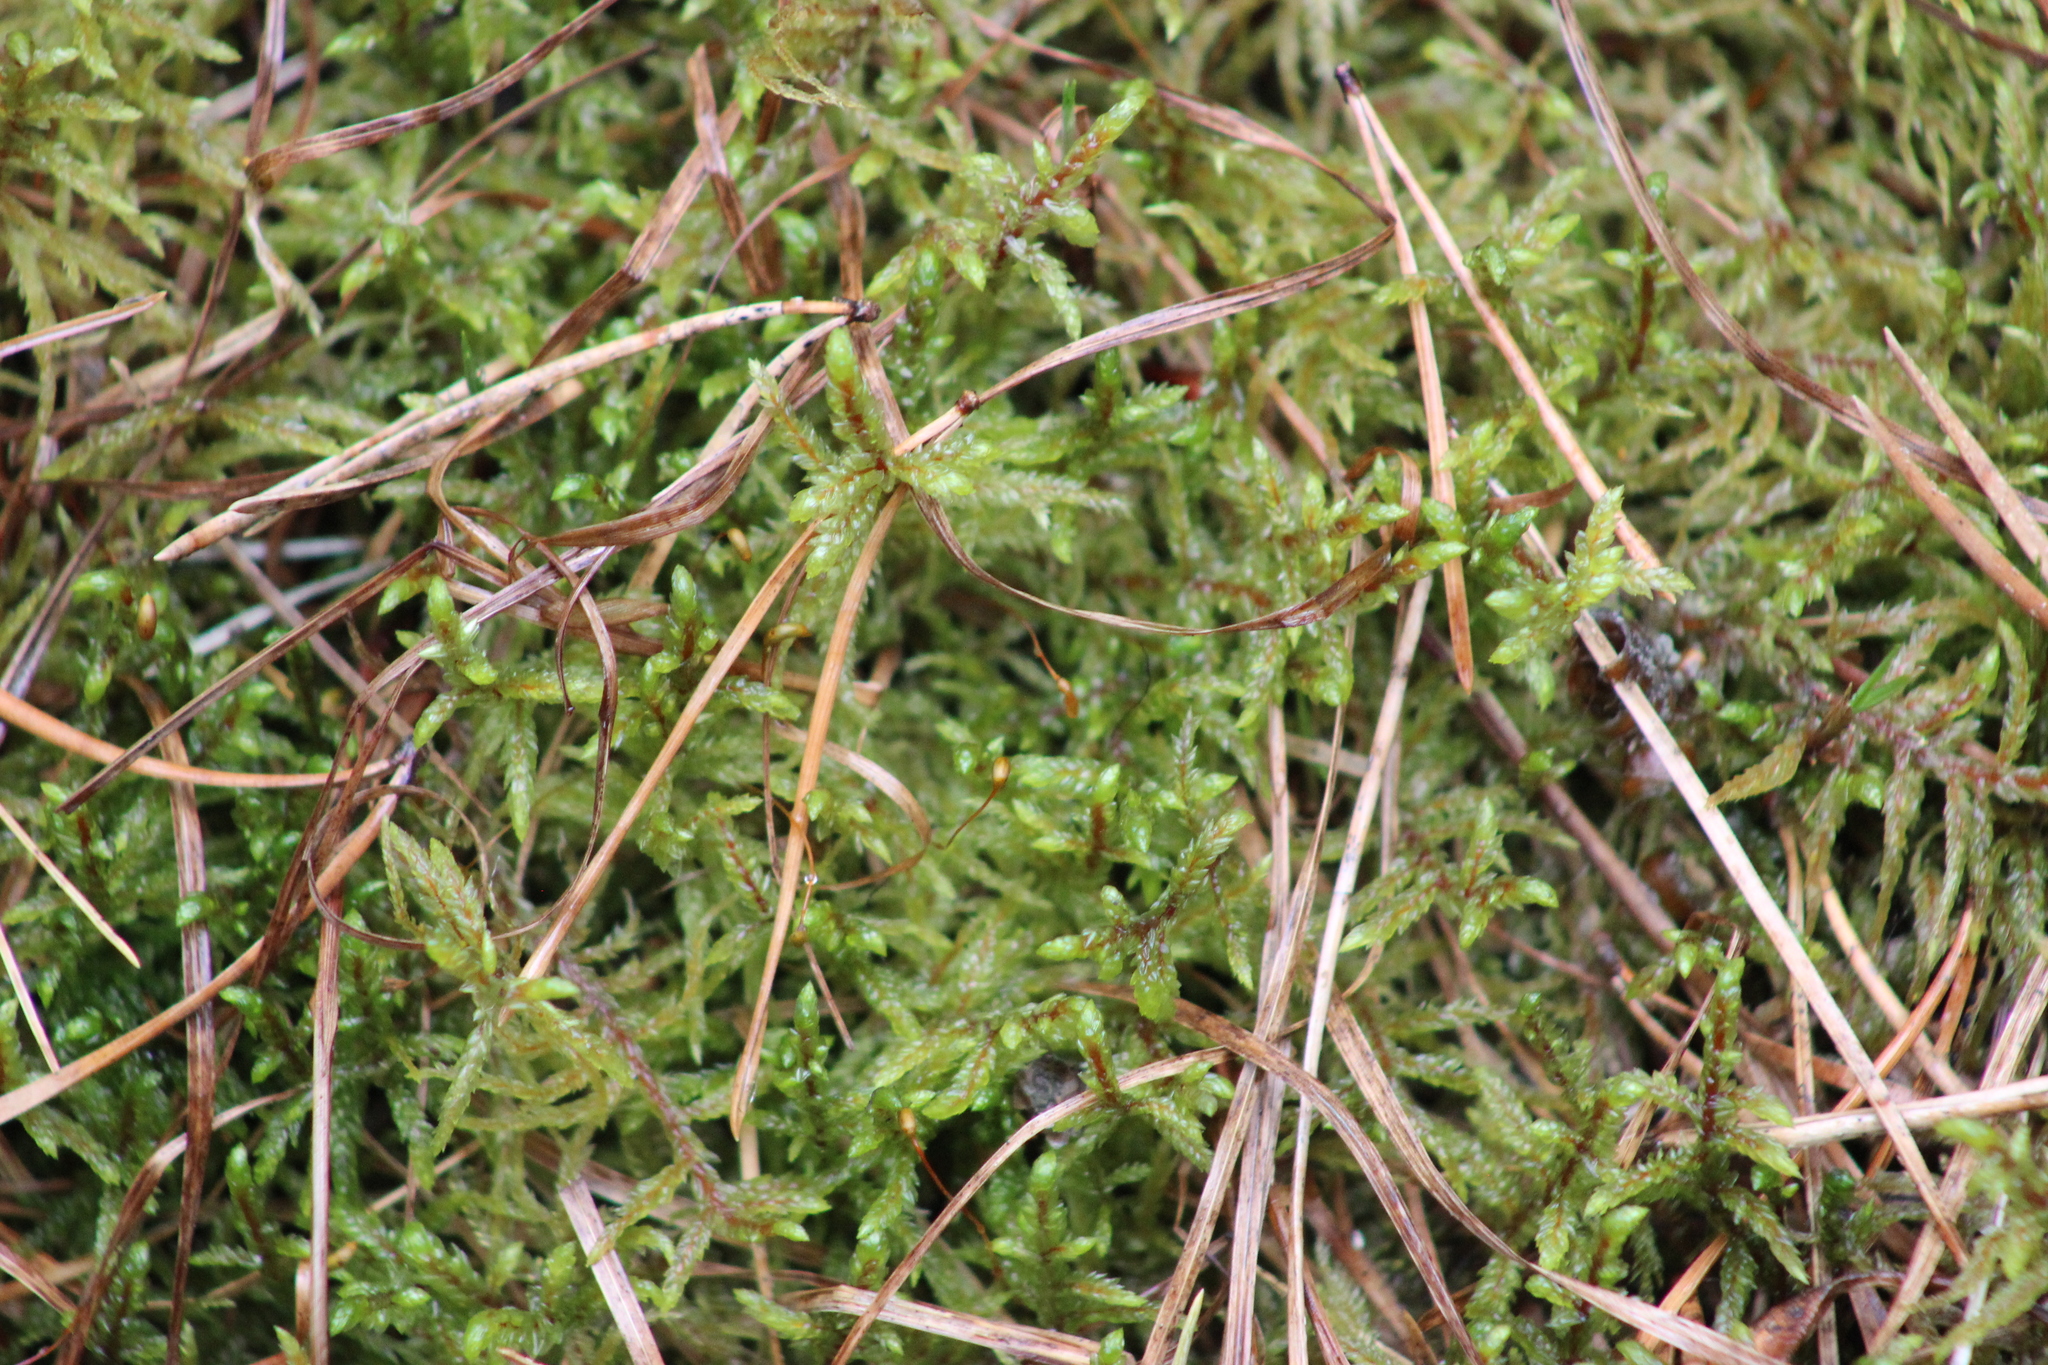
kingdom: Plantae
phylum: Bryophyta
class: Bryopsida
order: Hypnales
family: Hylocomiaceae
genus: Pleurozium
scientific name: Pleurozium schreberi
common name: Red-stemmed feather moss
